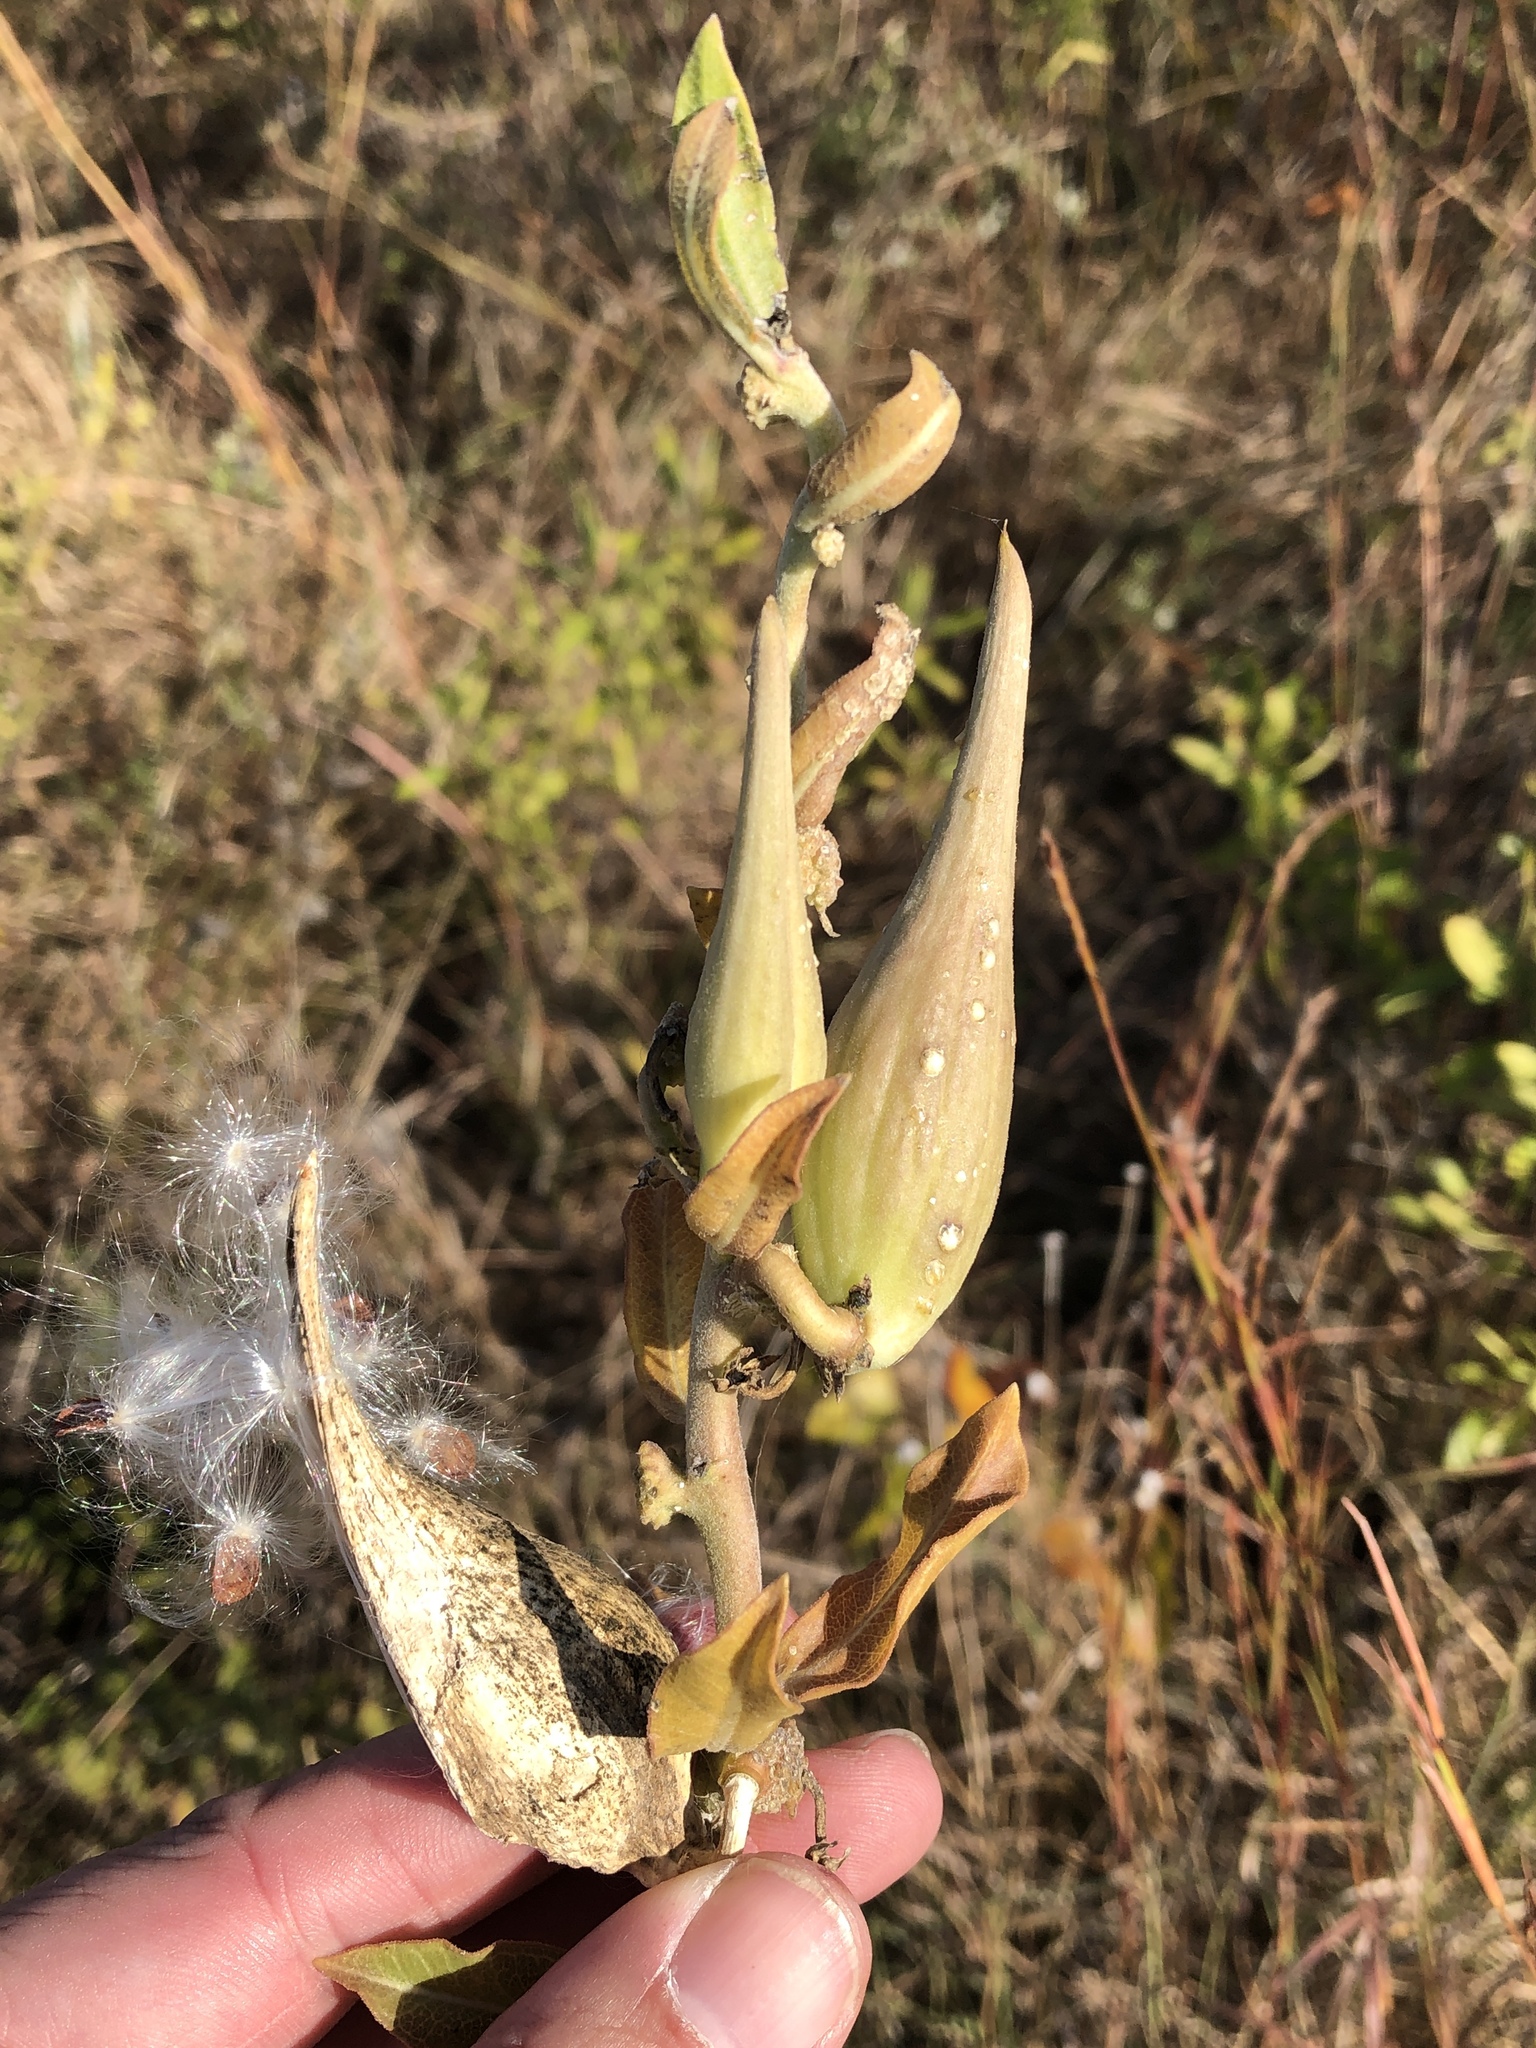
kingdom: Plantae
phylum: Tracheophyta
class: Magnoliopsida
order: Gentianales
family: Apocynaceae
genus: Asclepias
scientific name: Asclepias viridiflora
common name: Green comet milkweed
